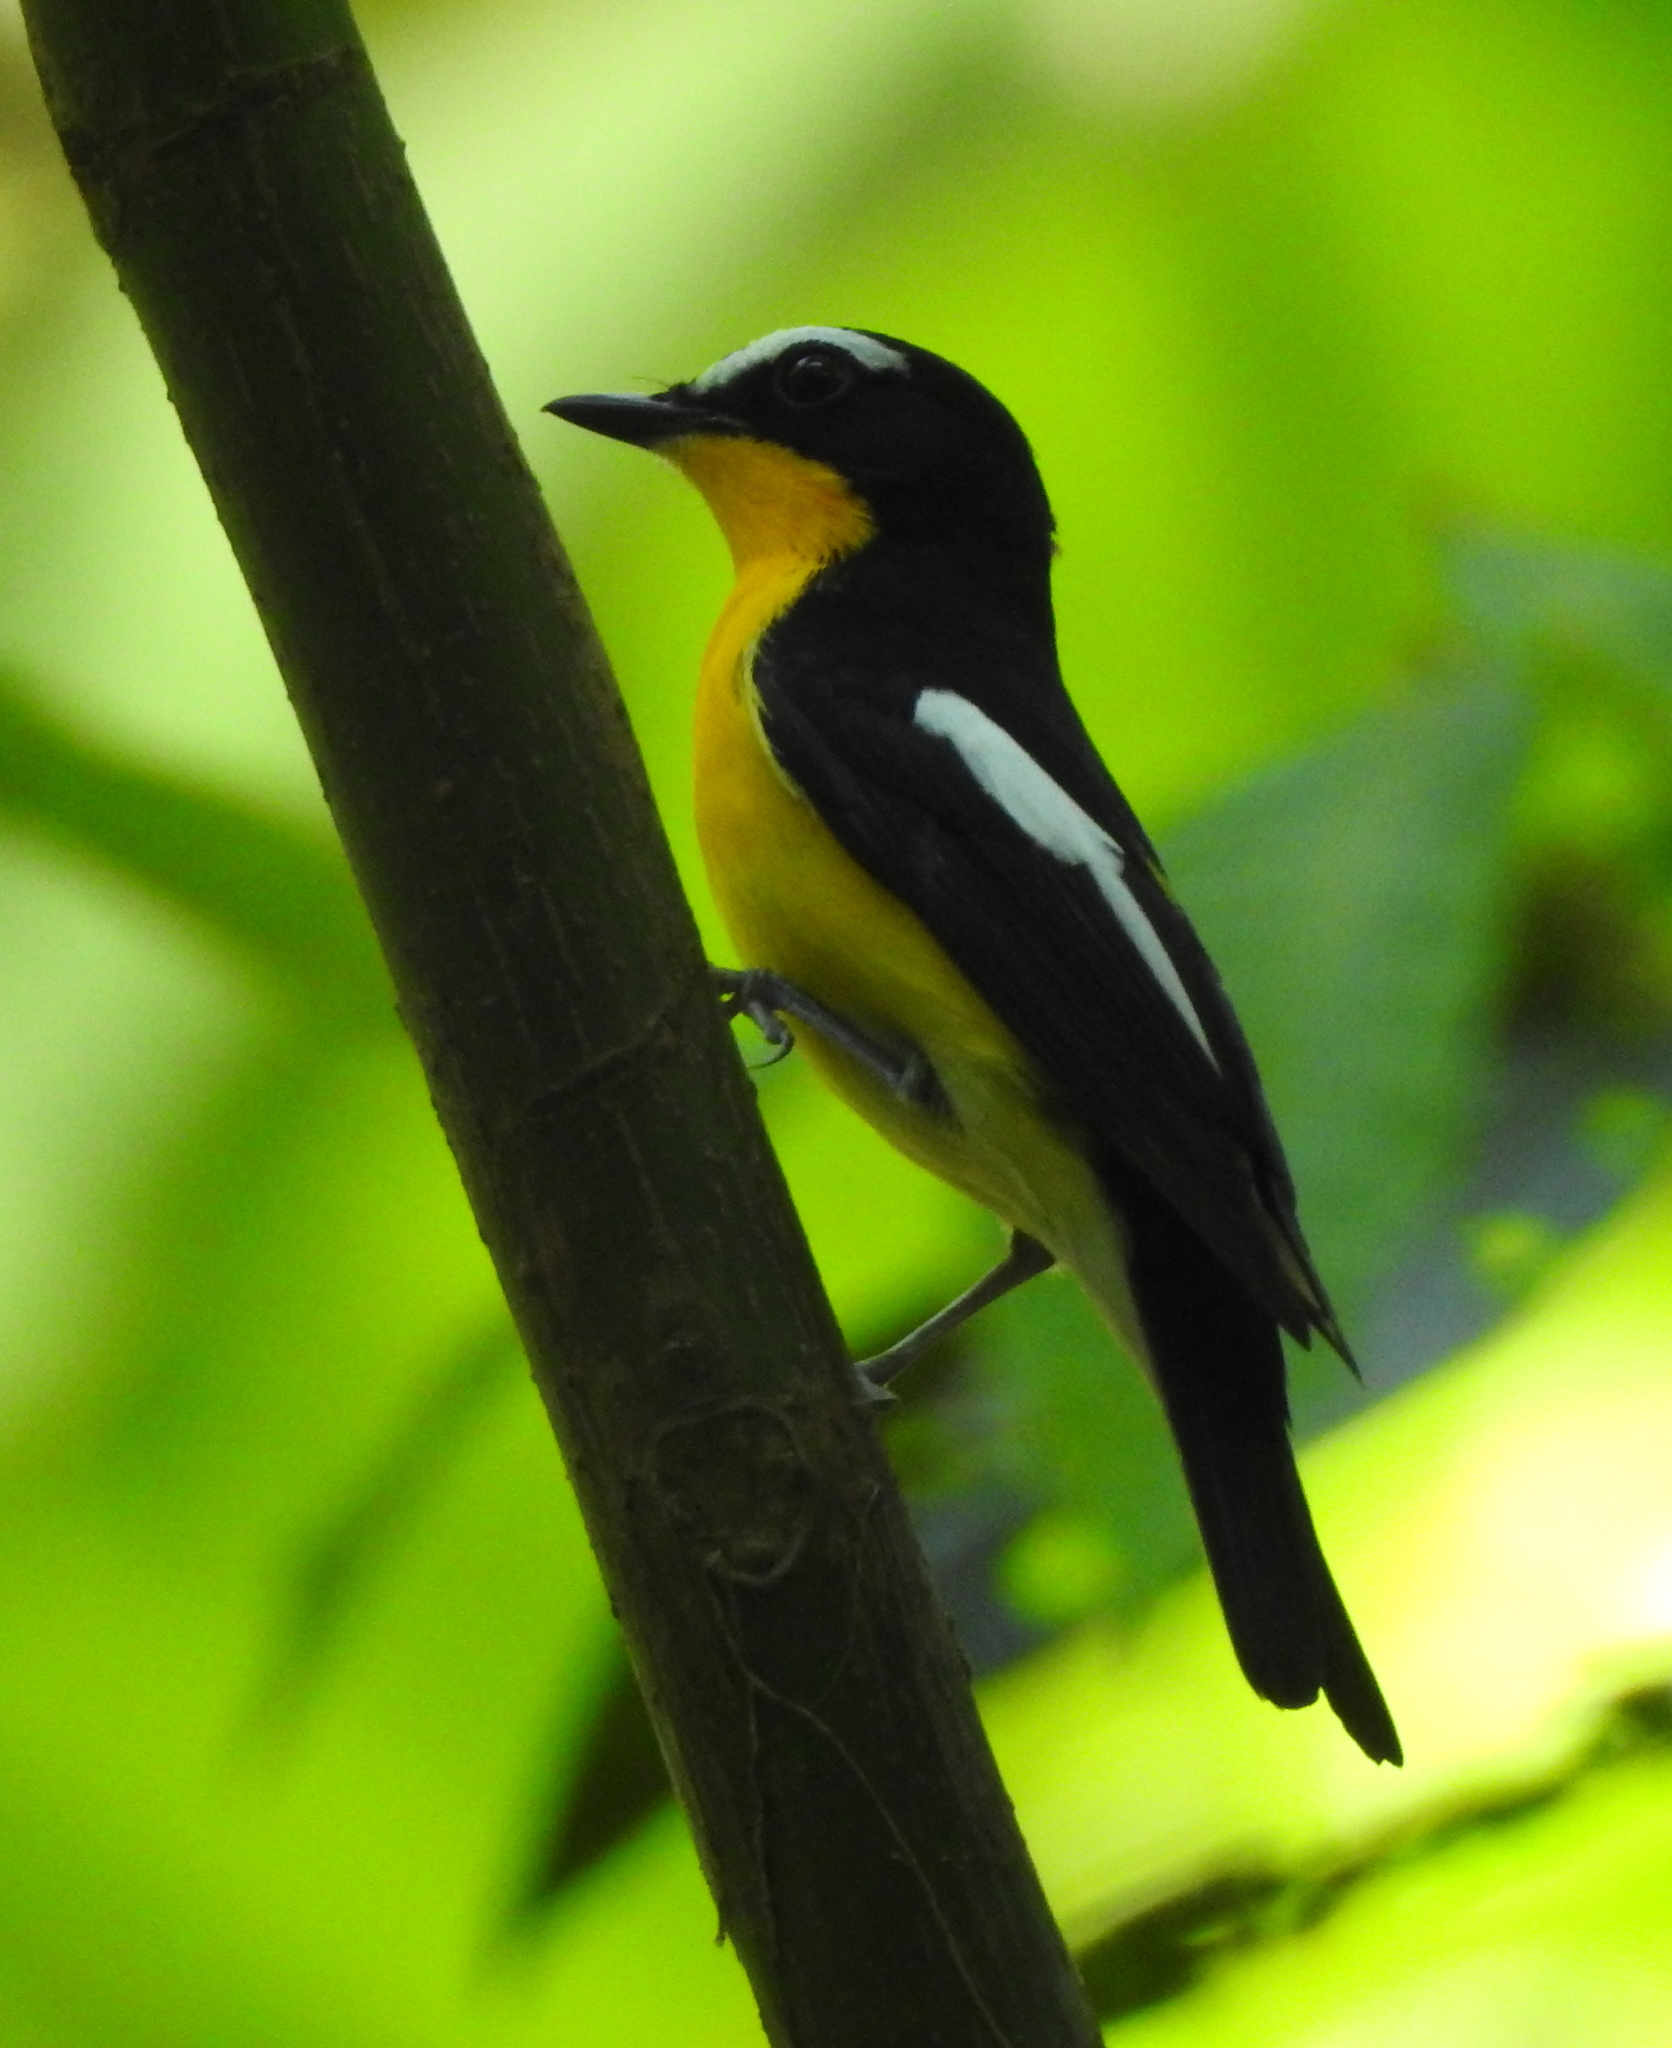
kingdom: Animalia
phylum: Chordata
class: Aves
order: Passeriformes
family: Muscicapidae
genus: Ficedula
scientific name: Ficedula zanthopygia
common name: Yellow-rumped flycatcher
